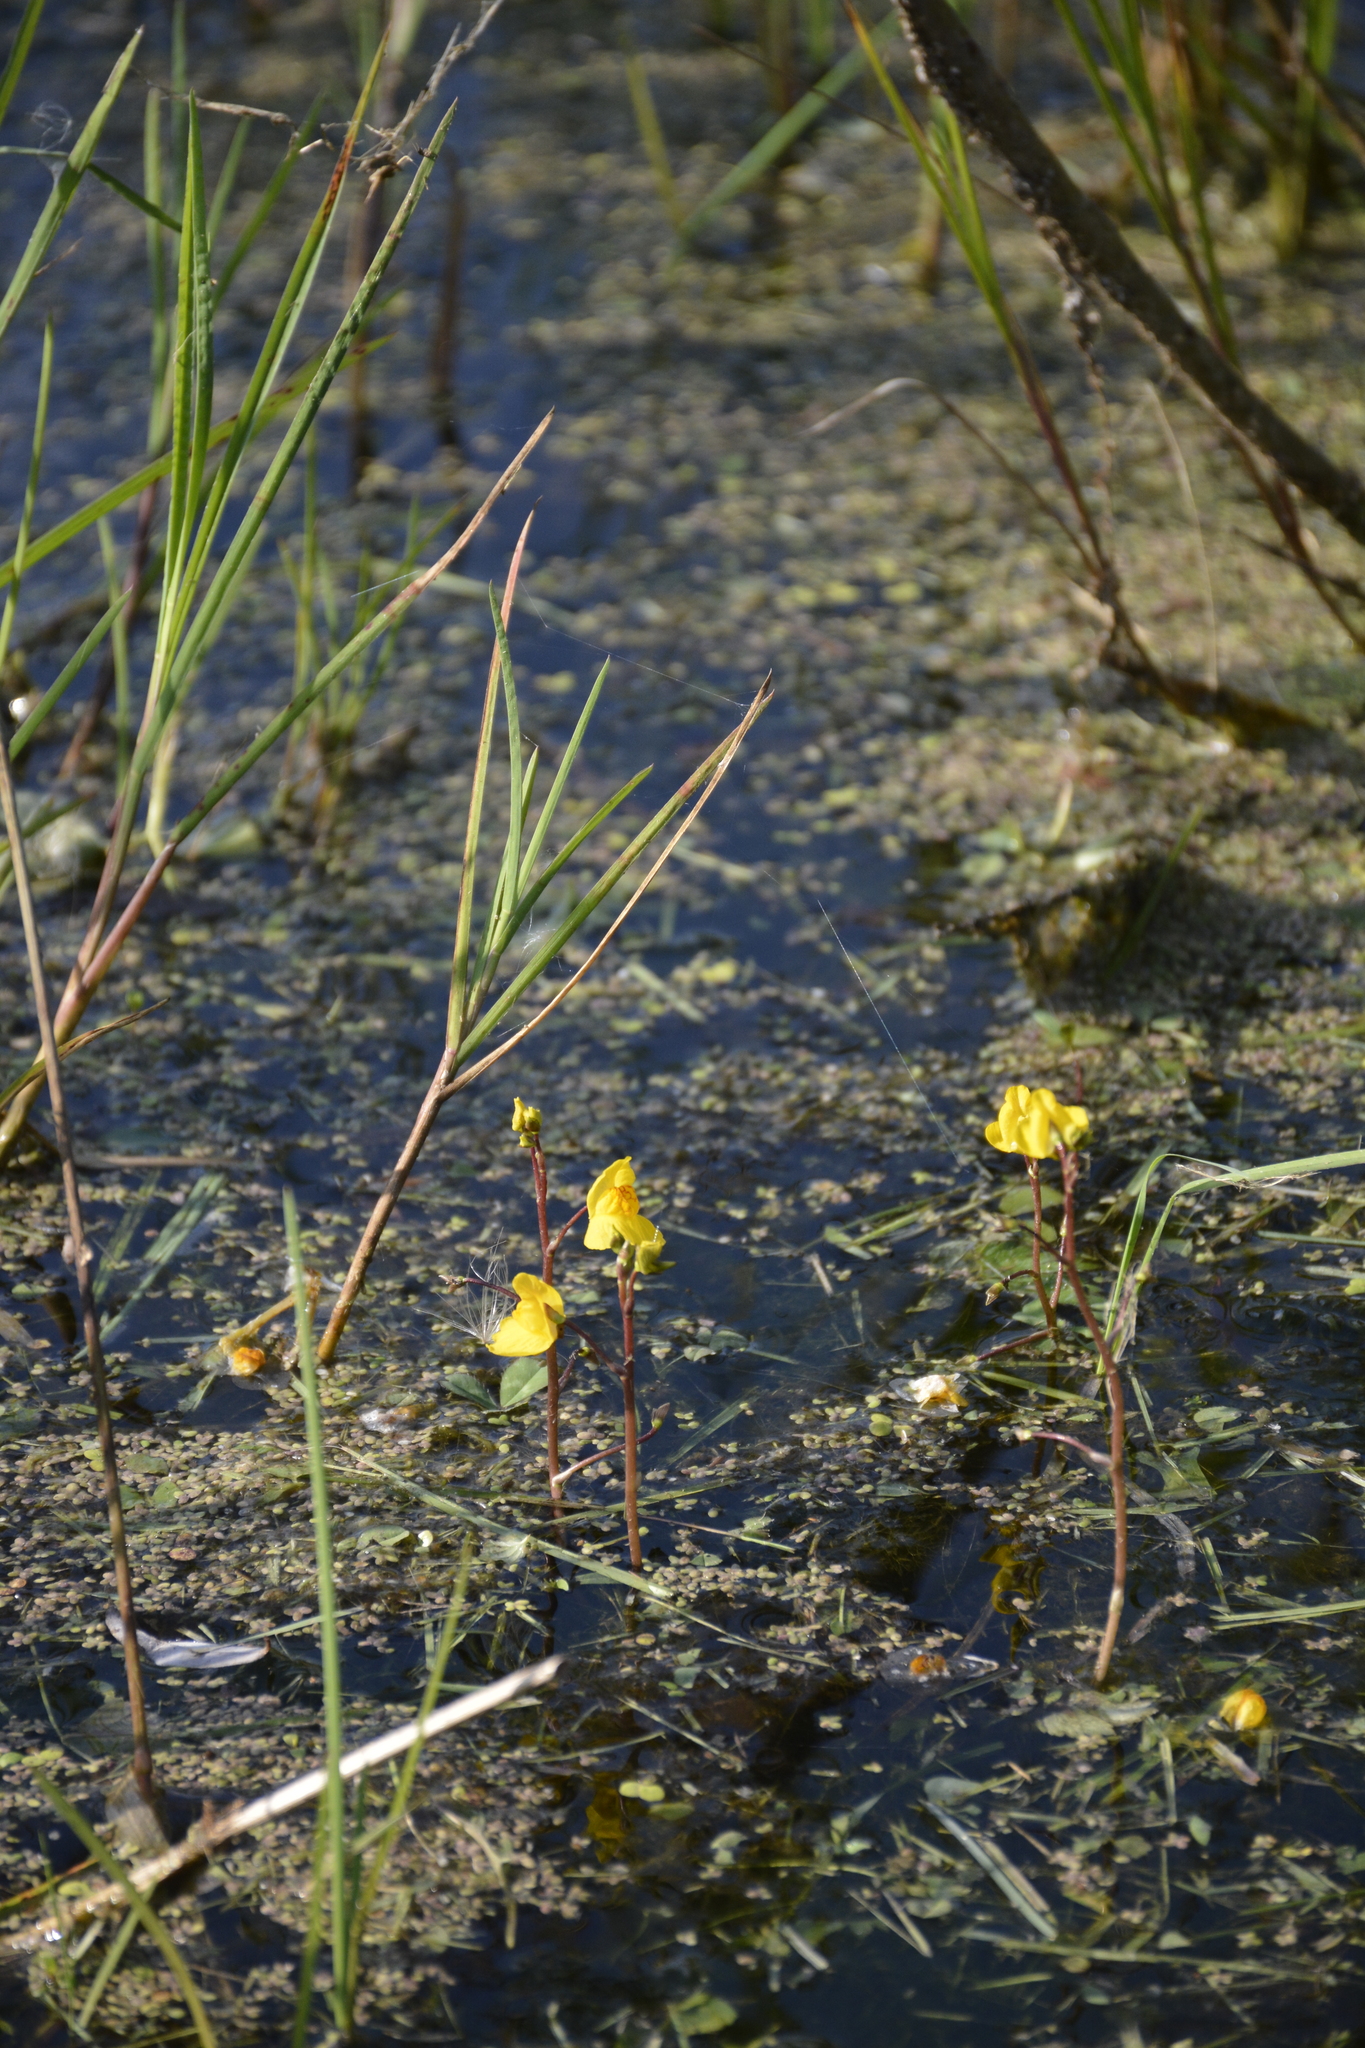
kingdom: Plantae
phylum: Tracheophyta
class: Magnoliopsida
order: Lamiales
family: Lentibulariaceae
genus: Utricularia
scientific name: Utricularia australis
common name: Bladderwort
